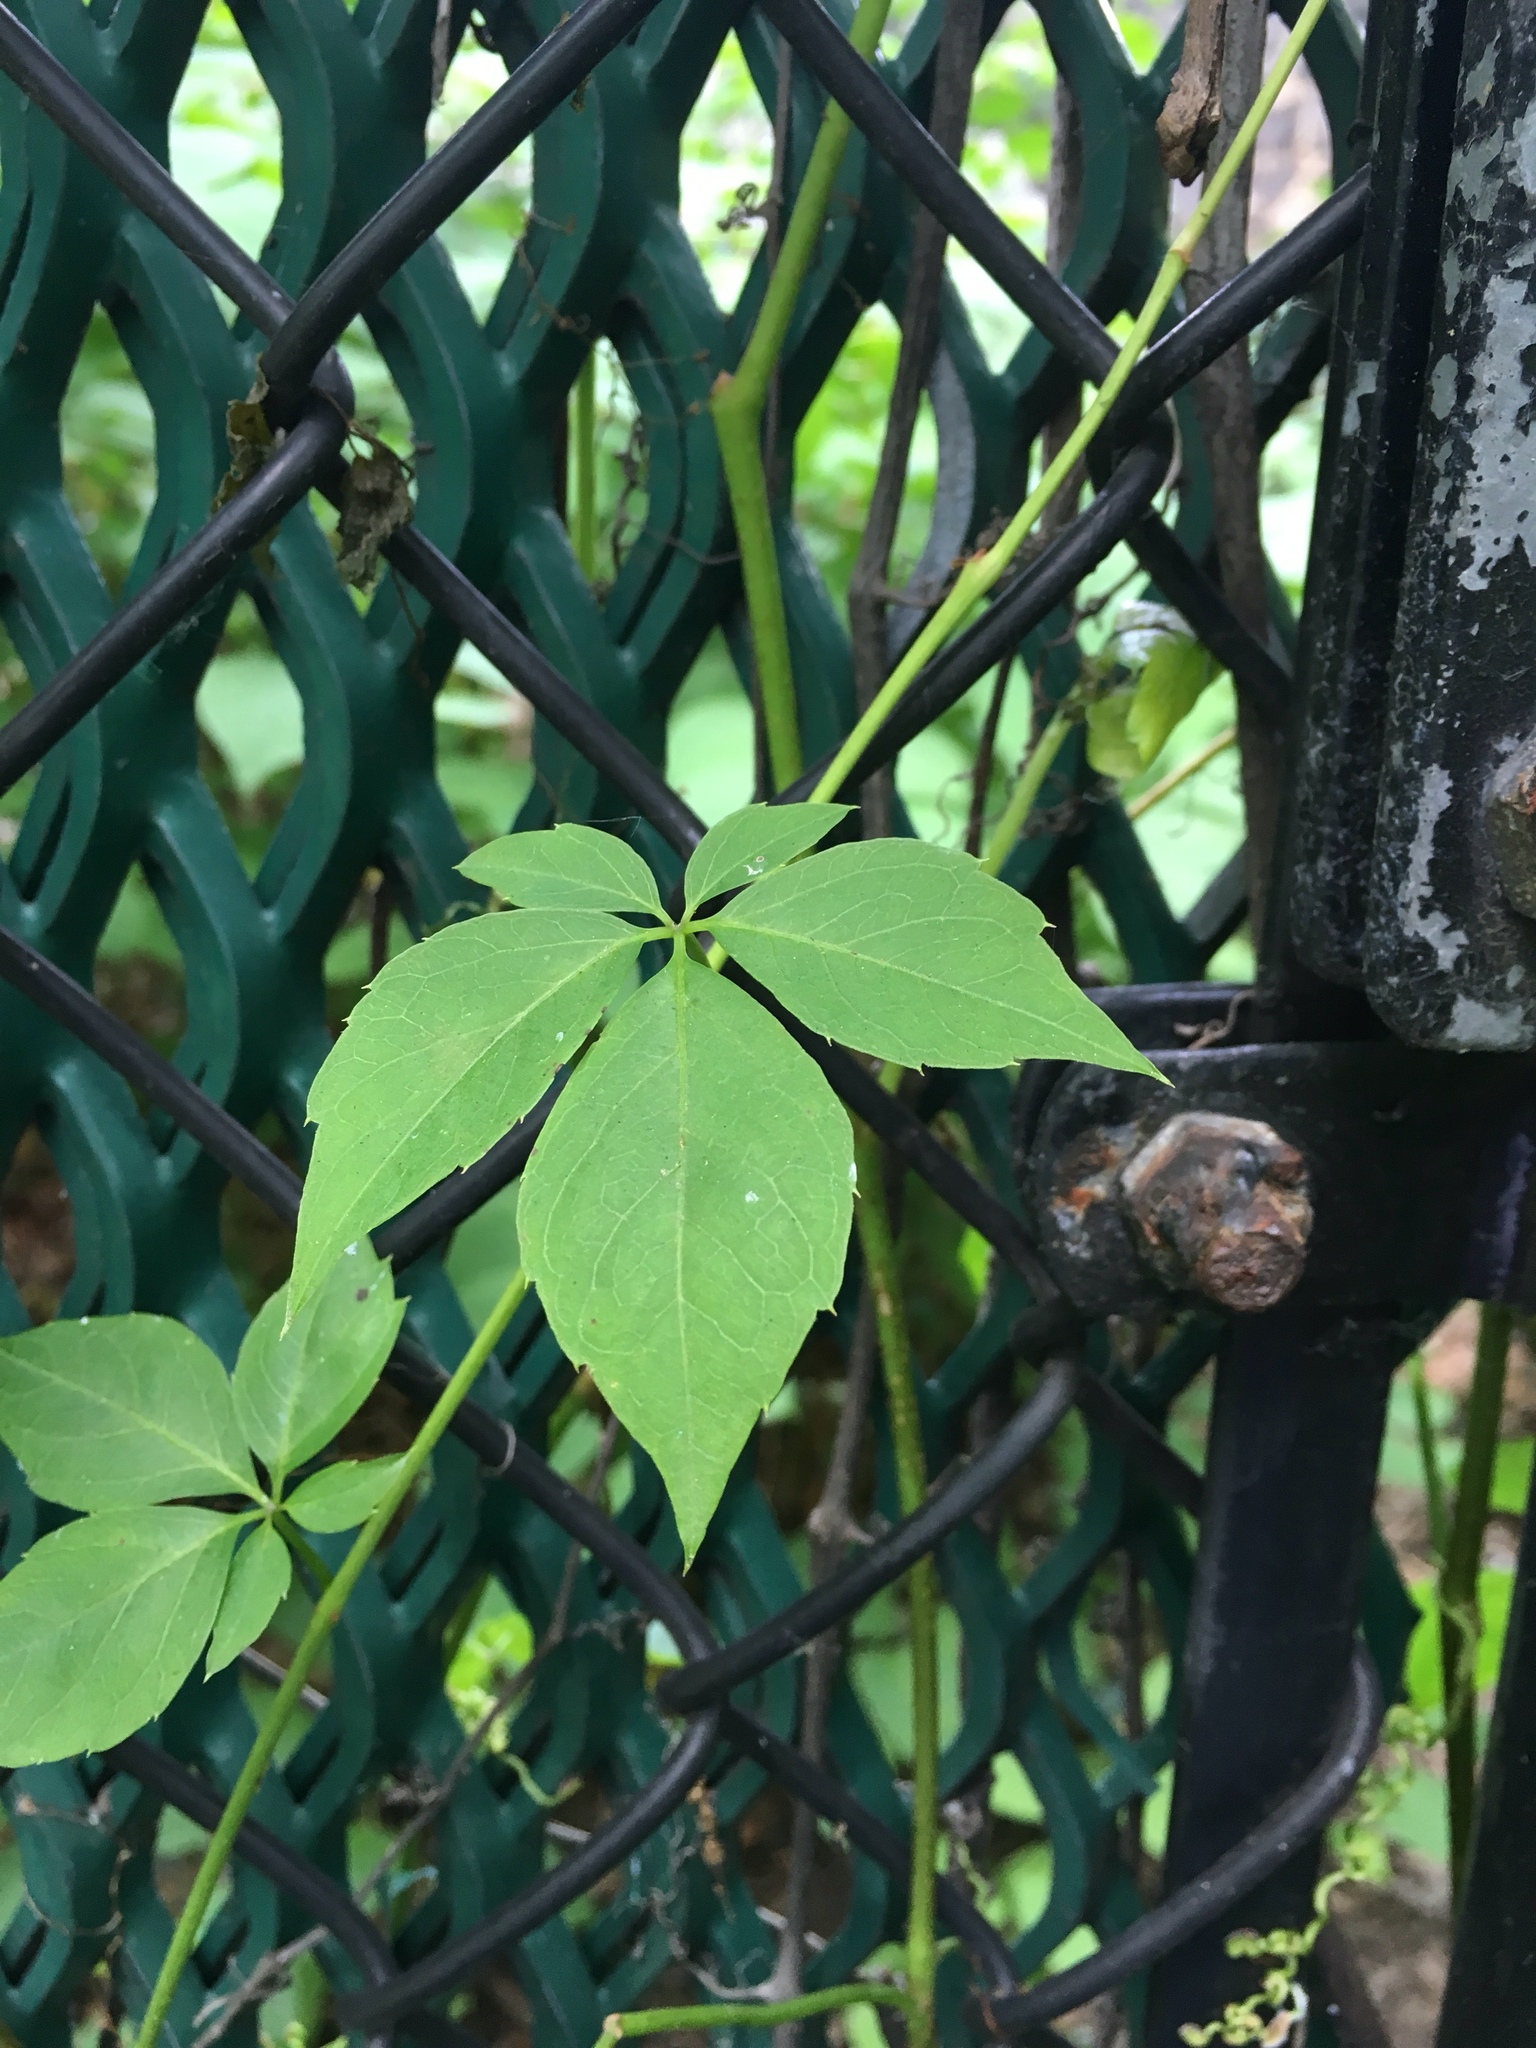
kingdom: Plantae
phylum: Tracheophyta
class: Magnoliopsida
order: Vitales
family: Vitaceae
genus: Parthenocissus
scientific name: Parthenocissus quinquefolia
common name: Virginia-creeper
